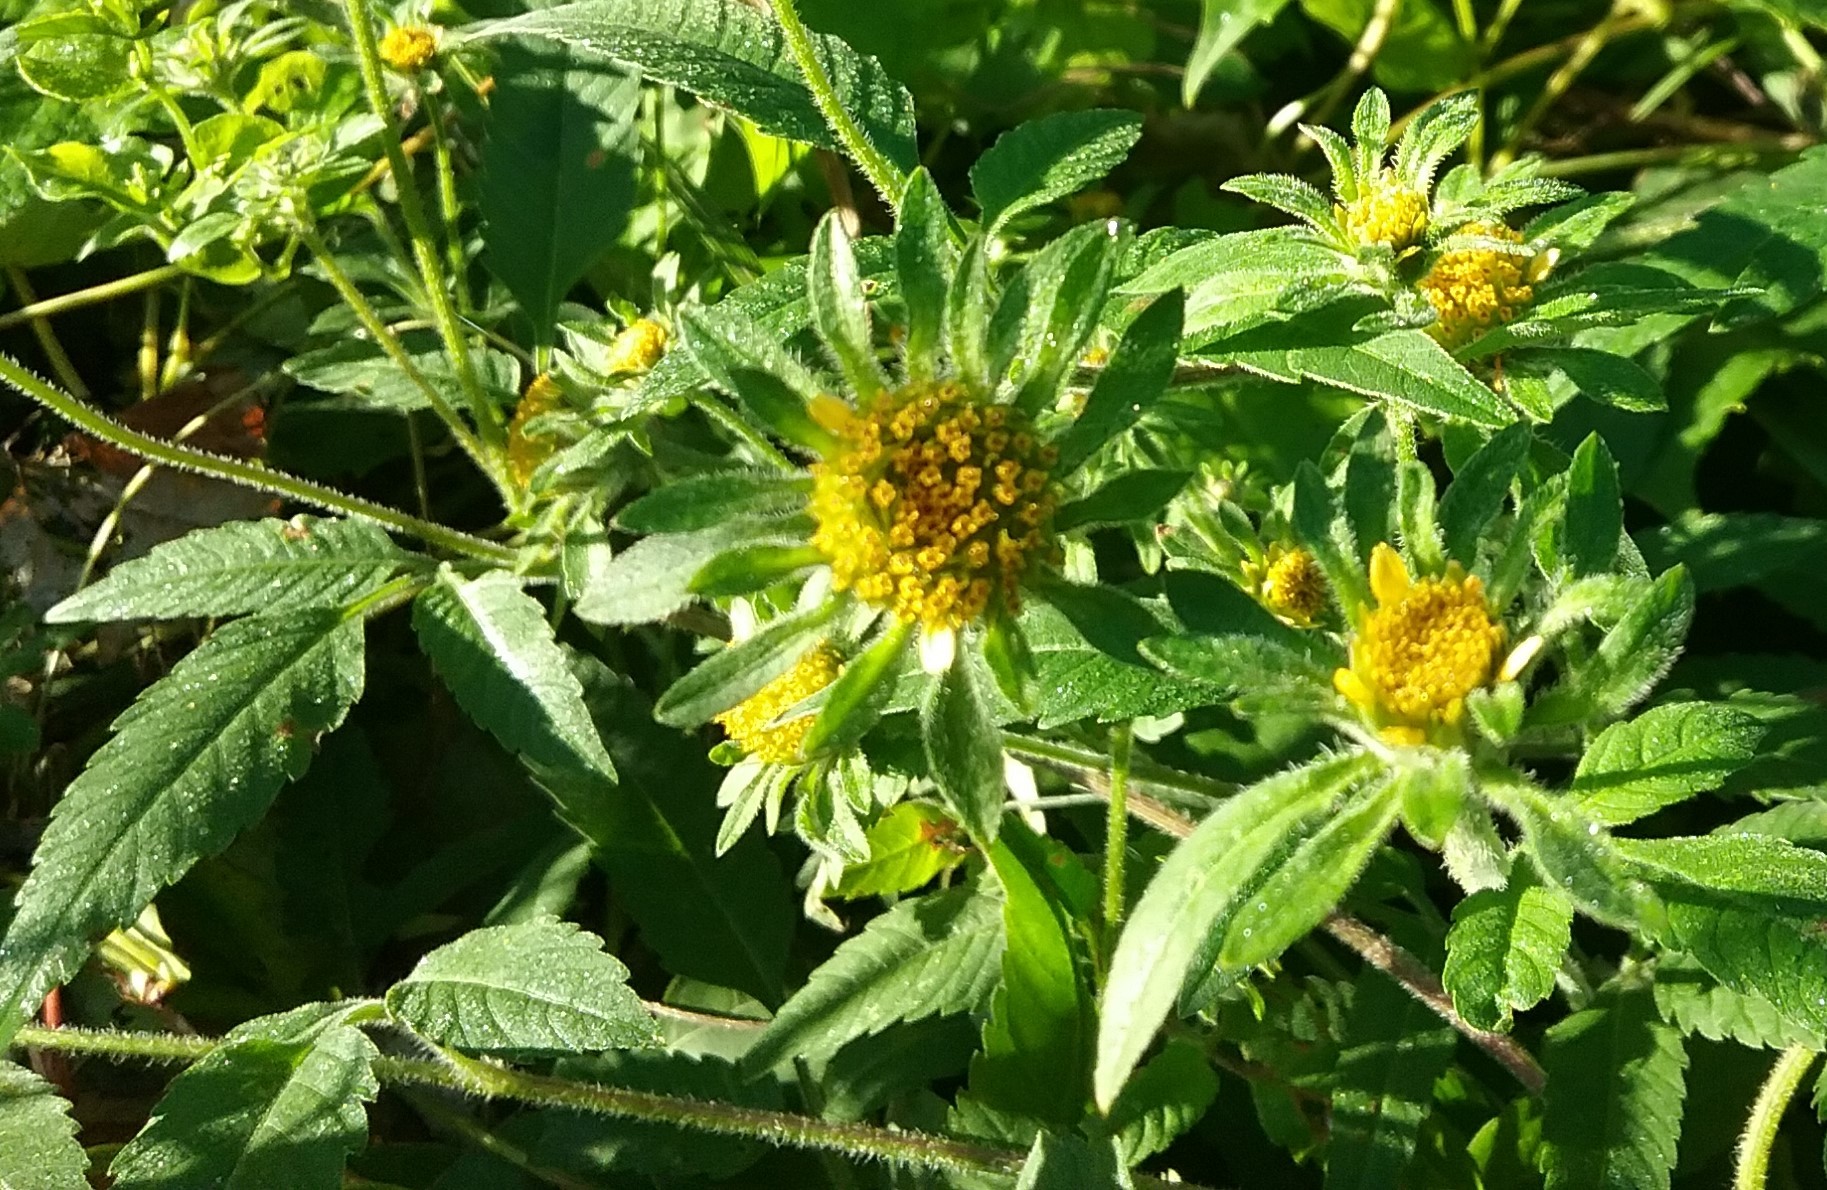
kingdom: Plantae
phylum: Tracheophyta
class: Magnoliopsida
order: Asterales
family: Asteraceae
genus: Bidens
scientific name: Bidens vulgata
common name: Tall beggarticks
